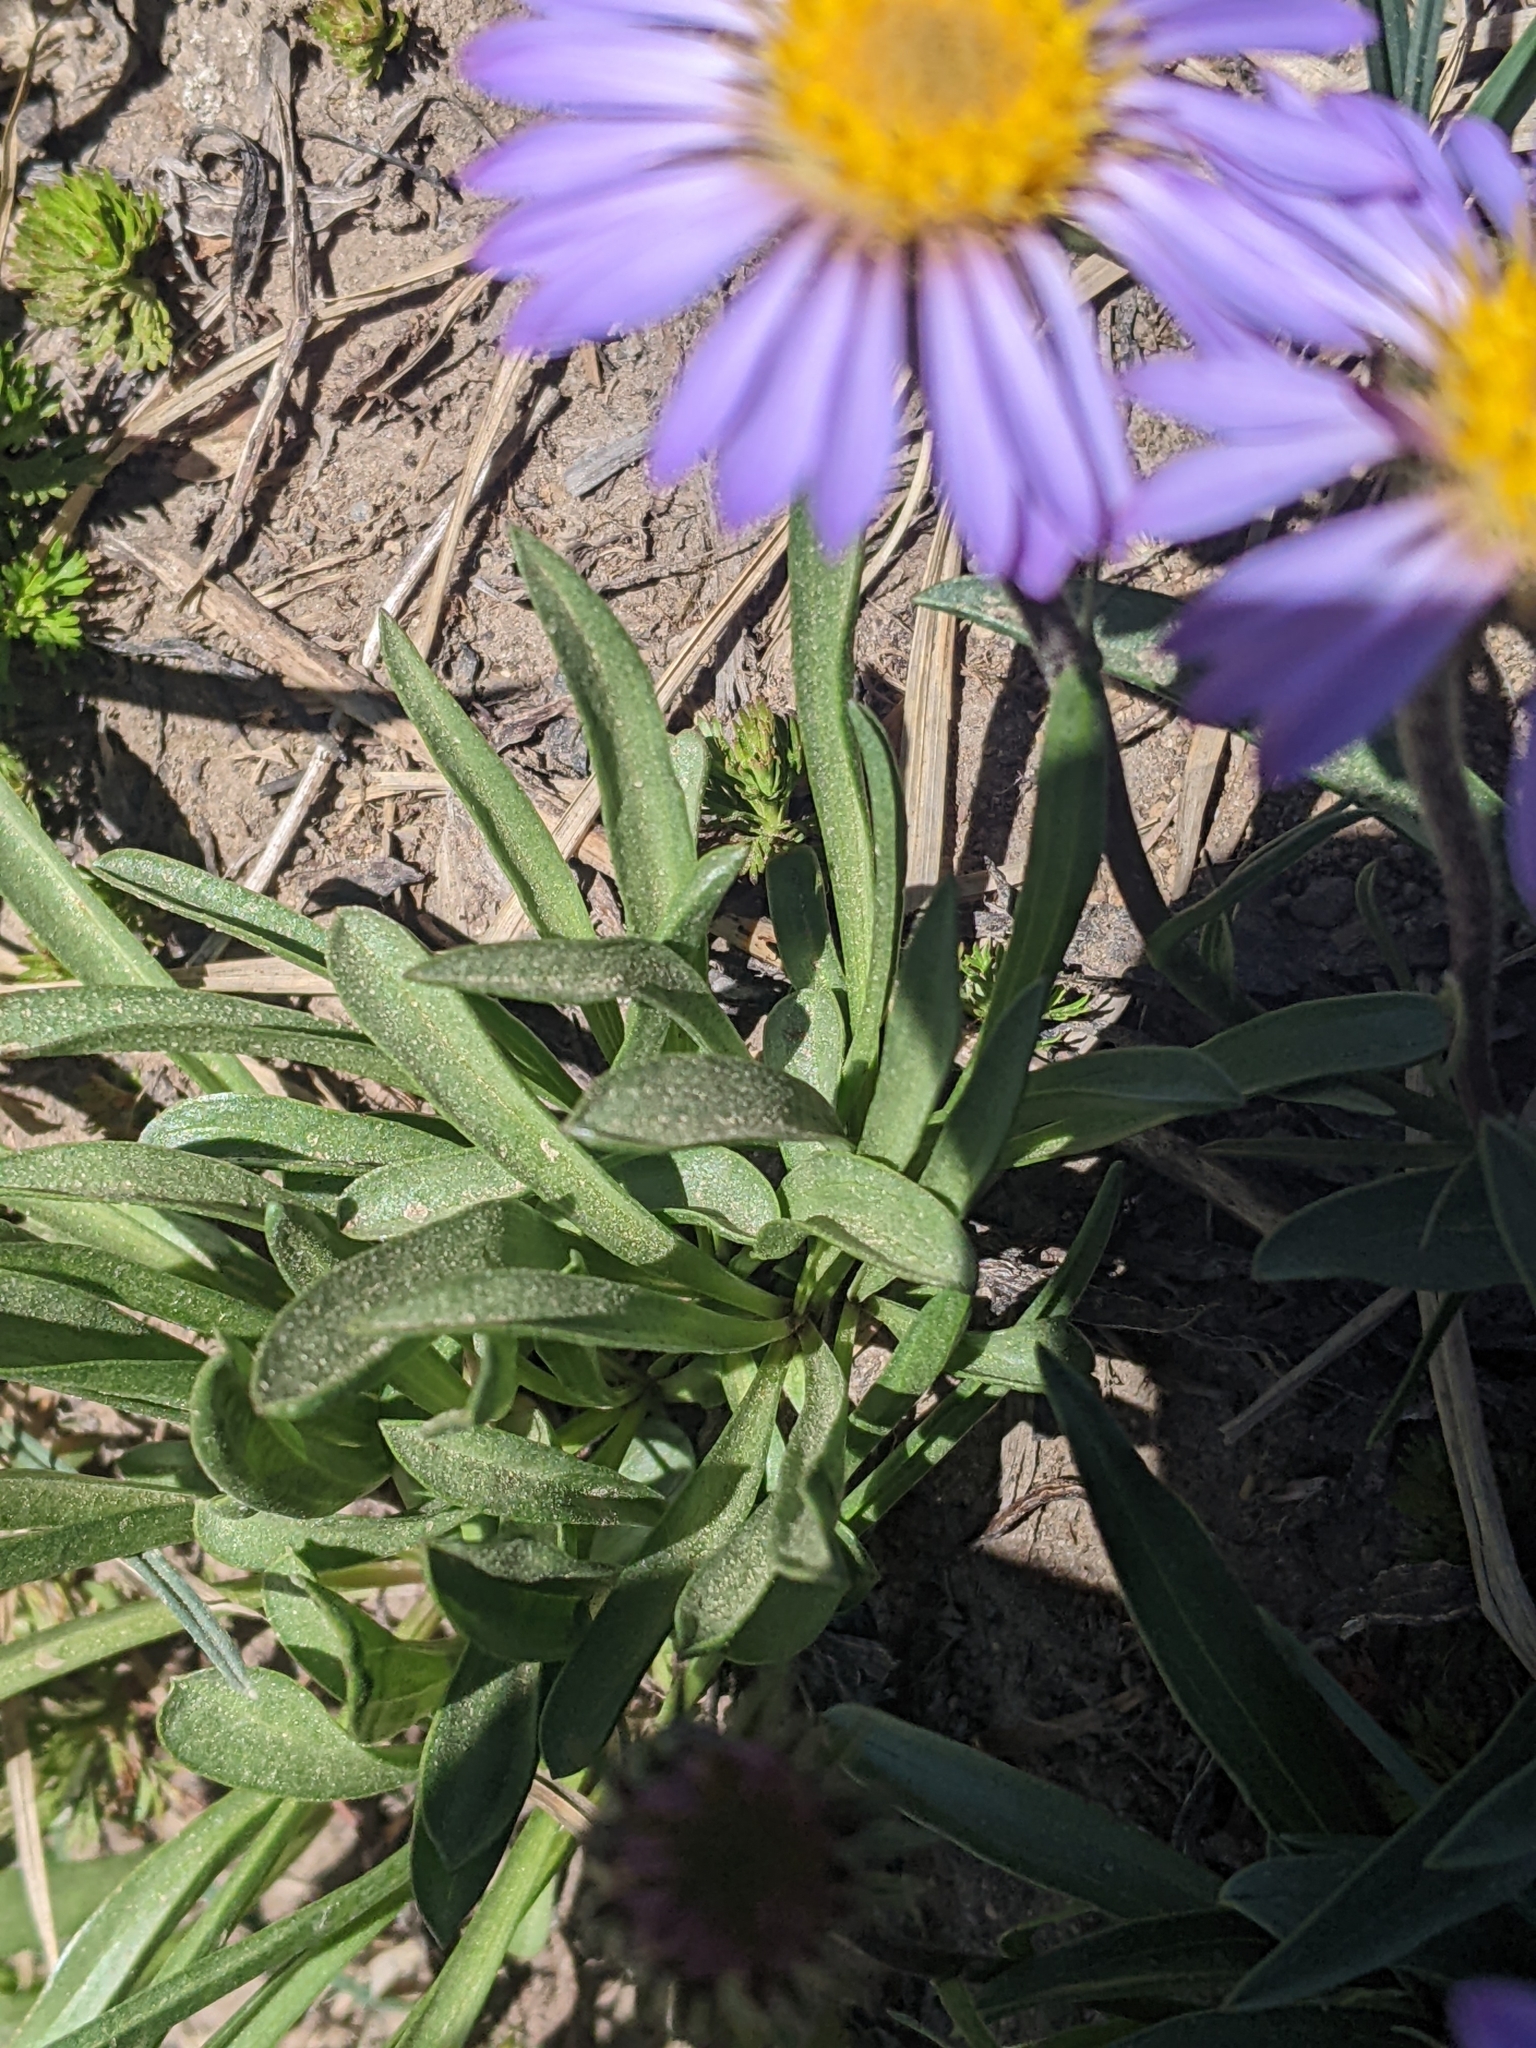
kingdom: Plantae
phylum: Tracheophyta
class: Magnoliopsida
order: Asterales
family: Asteraceae
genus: Oreostemma
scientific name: Oreostemma alpigenum
